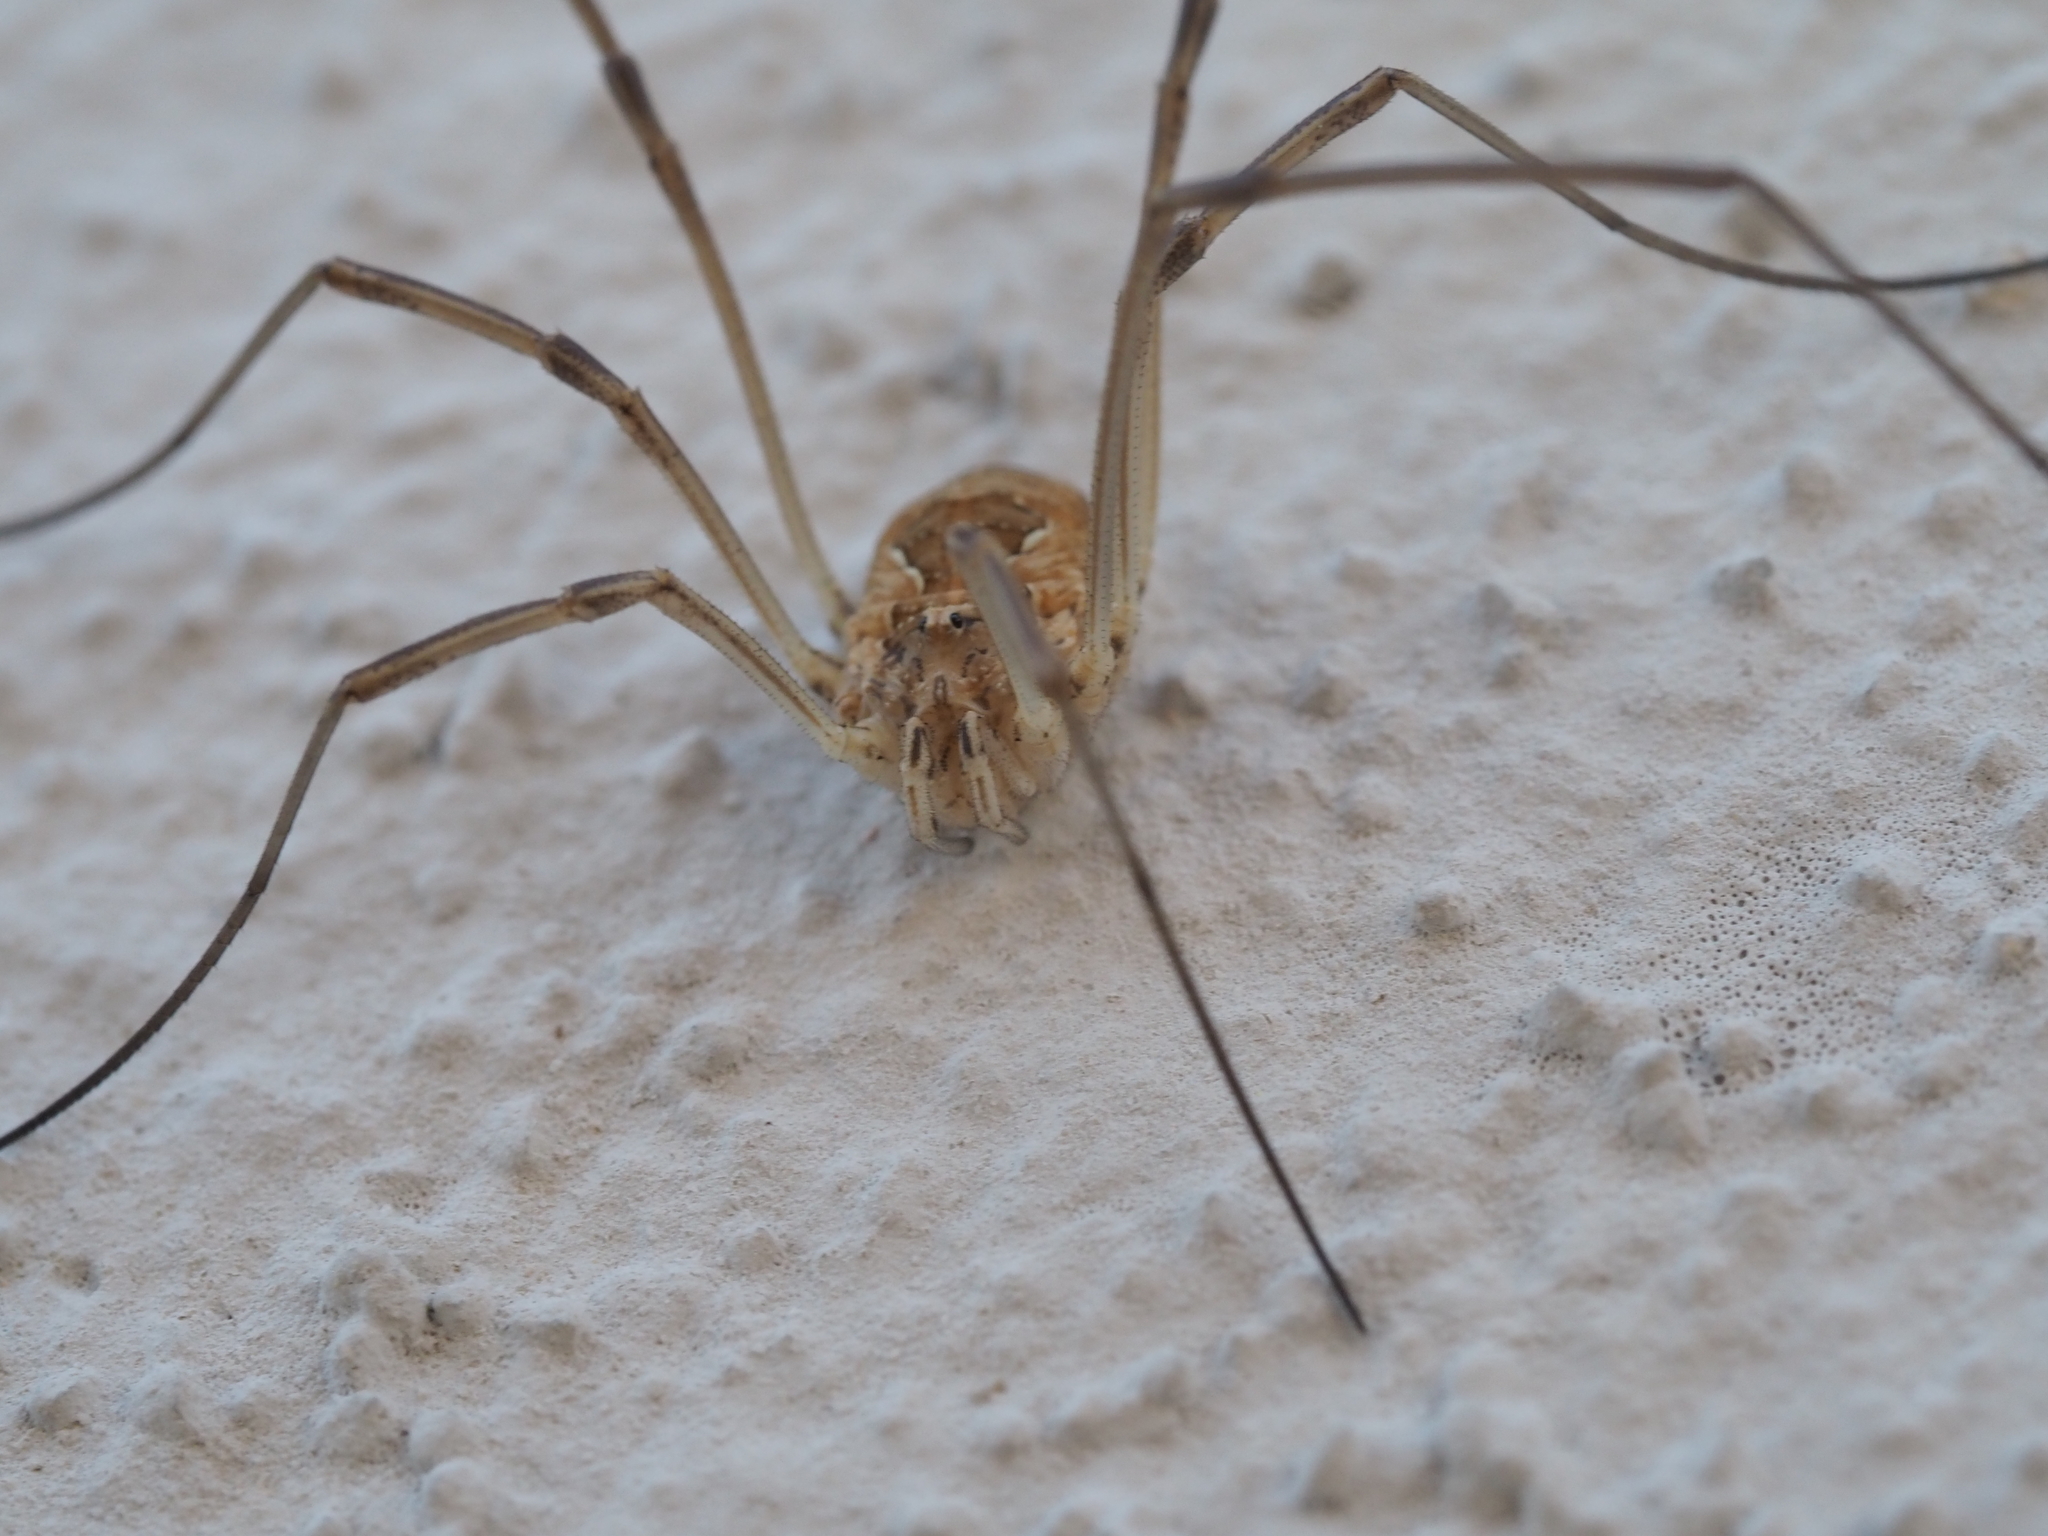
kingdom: Animalia
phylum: Arthropoda
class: Arachnida
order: Opiliones
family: Phalangiidae
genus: Metaphalangium
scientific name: Metaphalangium cirtanum
